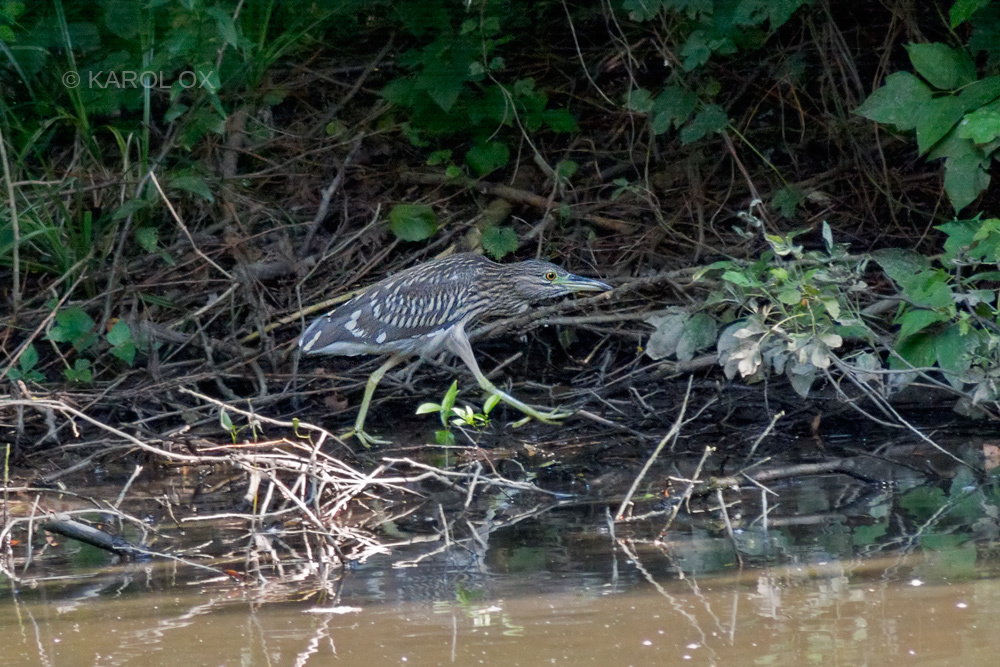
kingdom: Animalia
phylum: Chordata
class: Aves
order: Pelecaniformes
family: Ardeidae
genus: Nycticorax
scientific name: Nycticorax nycticorax
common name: Black-crowned night heron
